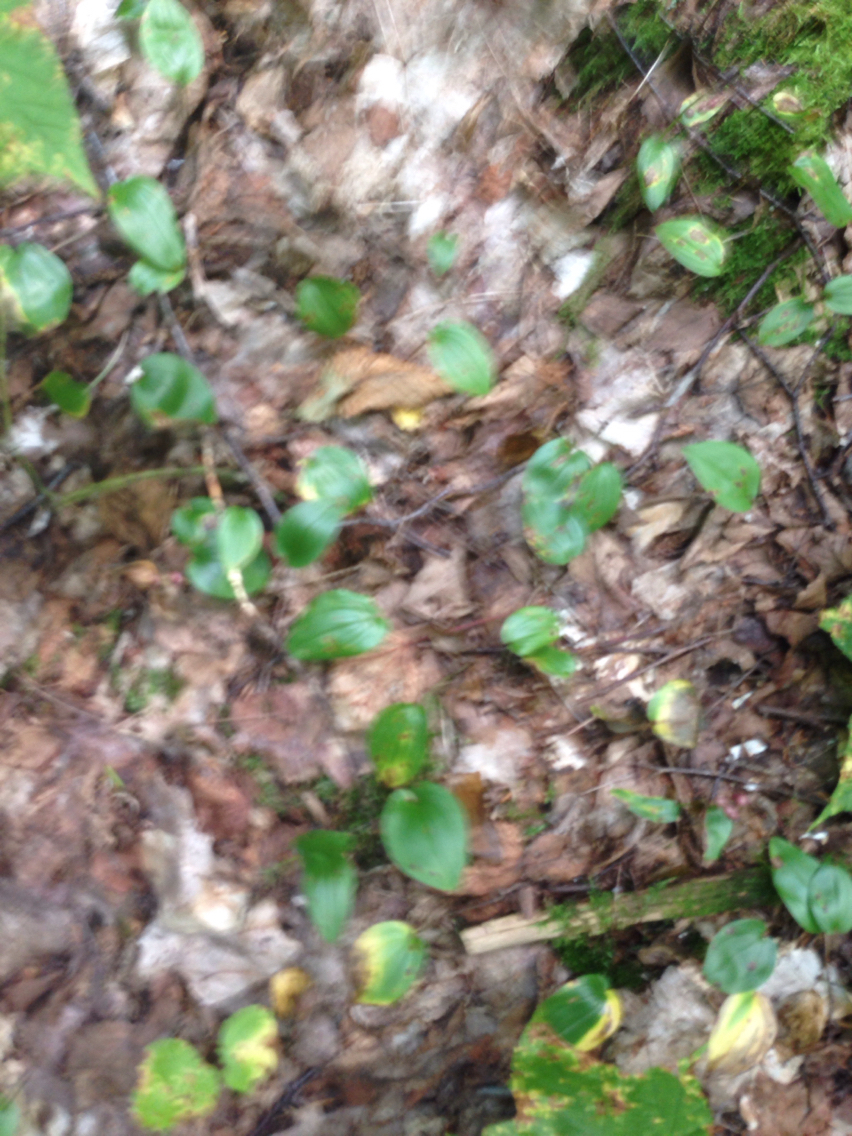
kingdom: Plantae
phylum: Tracheophyta
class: Liliopsida
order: Asparagales
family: Asparagaceae
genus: Maianthemum
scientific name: Maianthemum canadense
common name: False lily-of-the-valley
